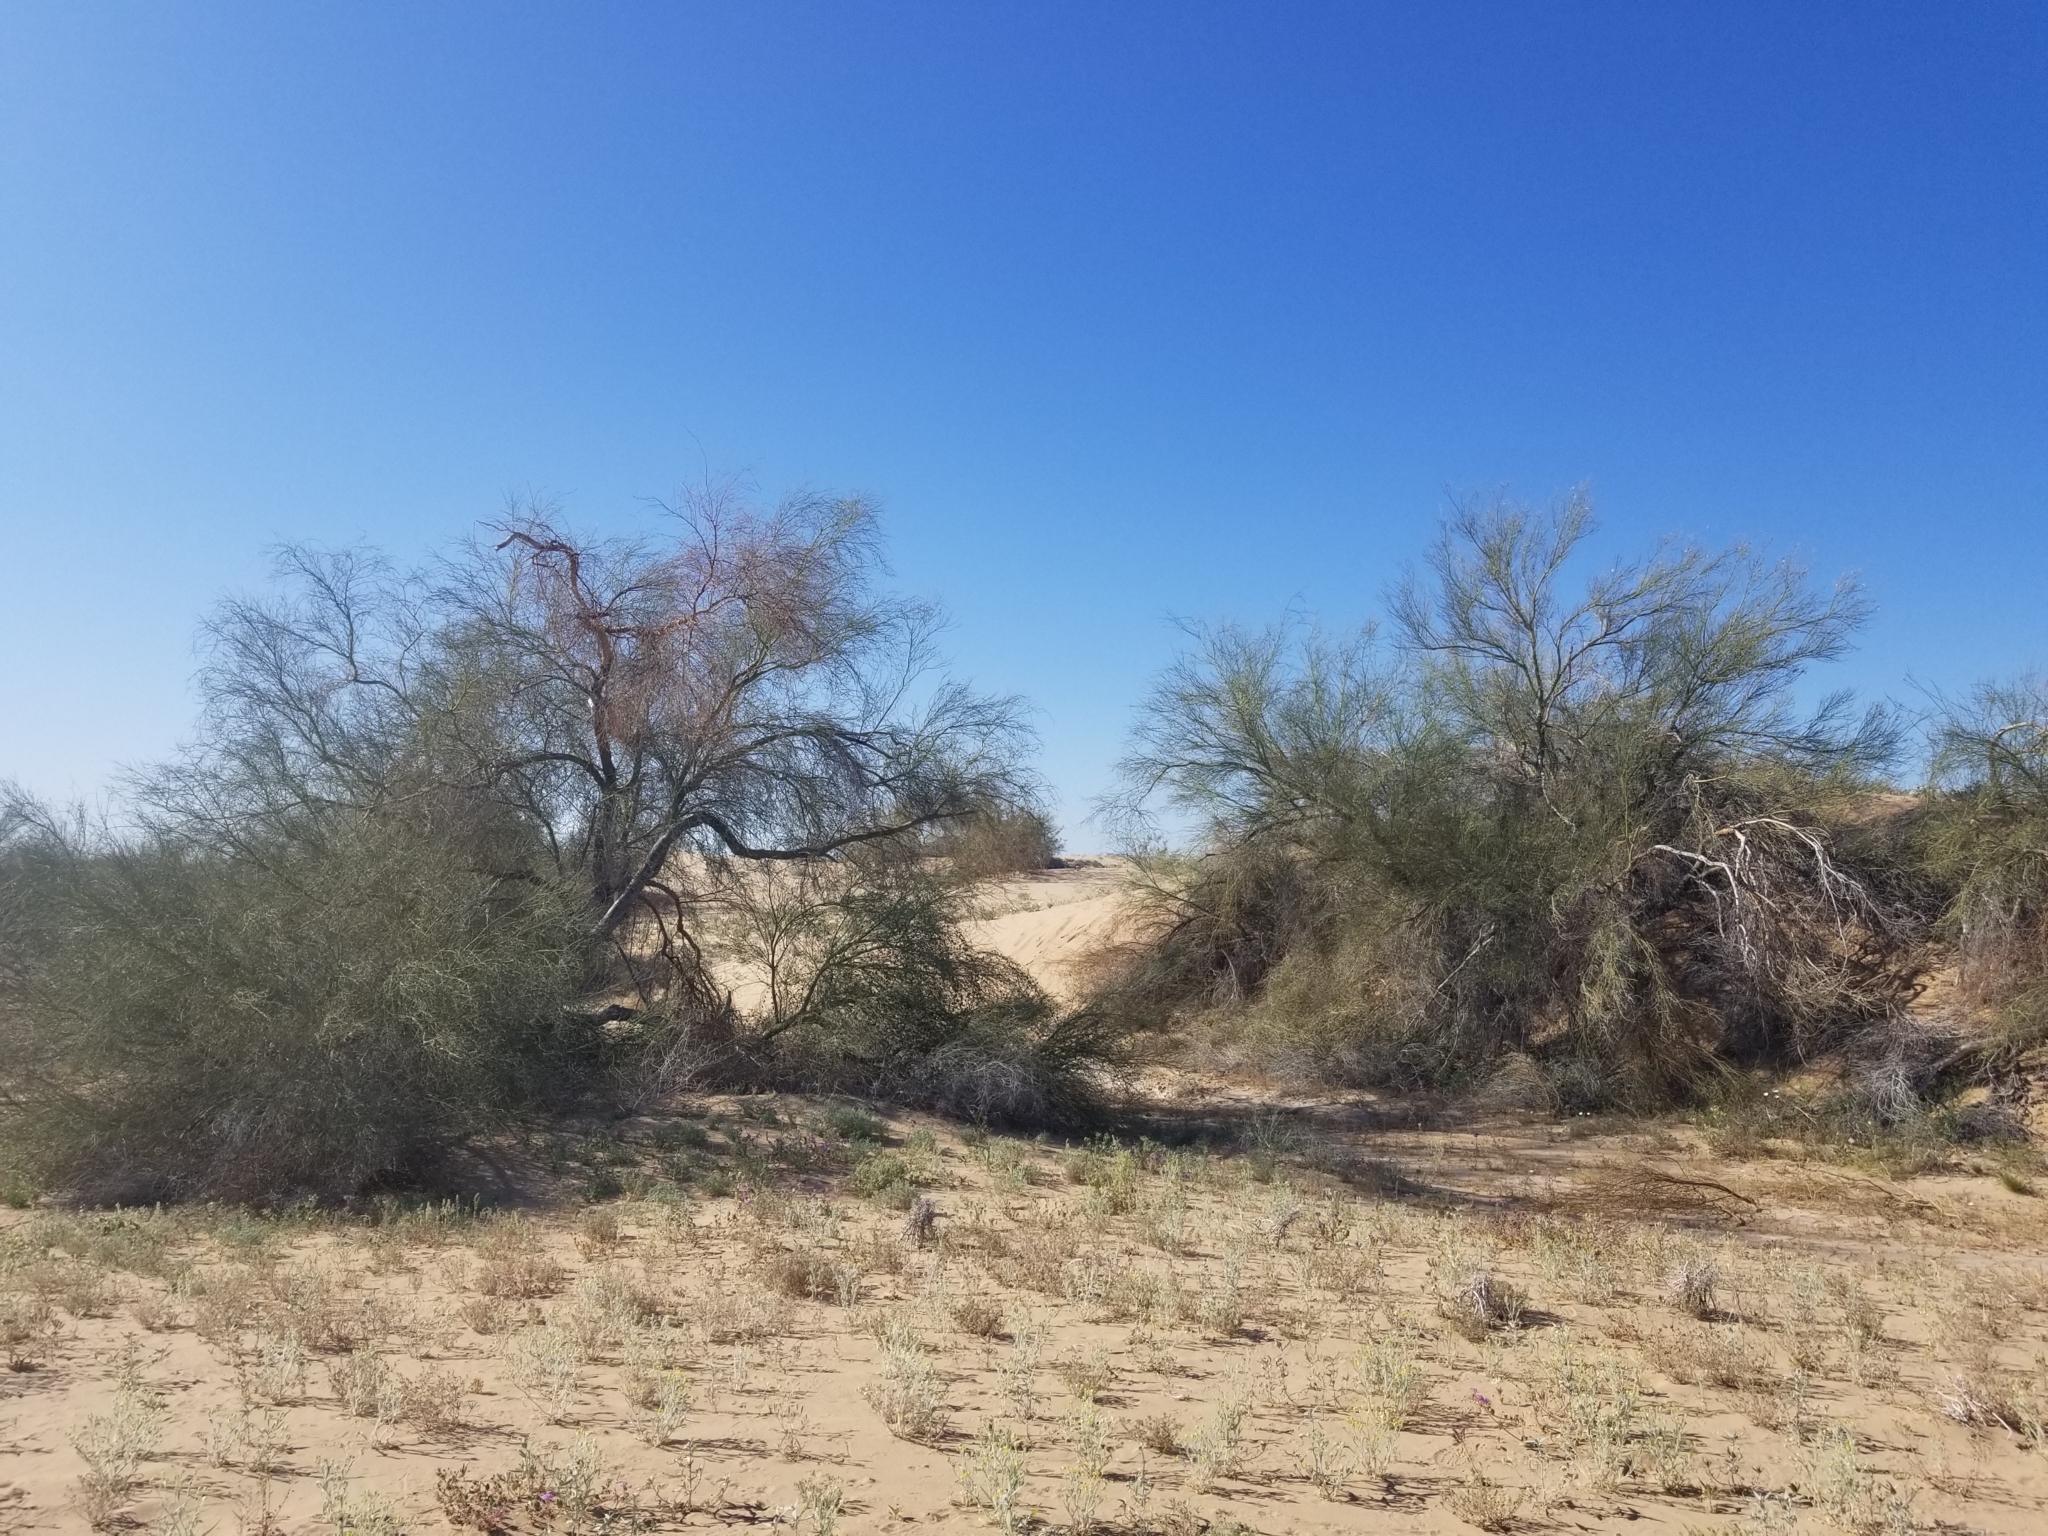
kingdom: Plantae
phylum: Tracheophyta
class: Magnoliopsida
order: Fabales
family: Fabaceae
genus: Parkinsonia
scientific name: Parkinsonia florida
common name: Blue paloverde
